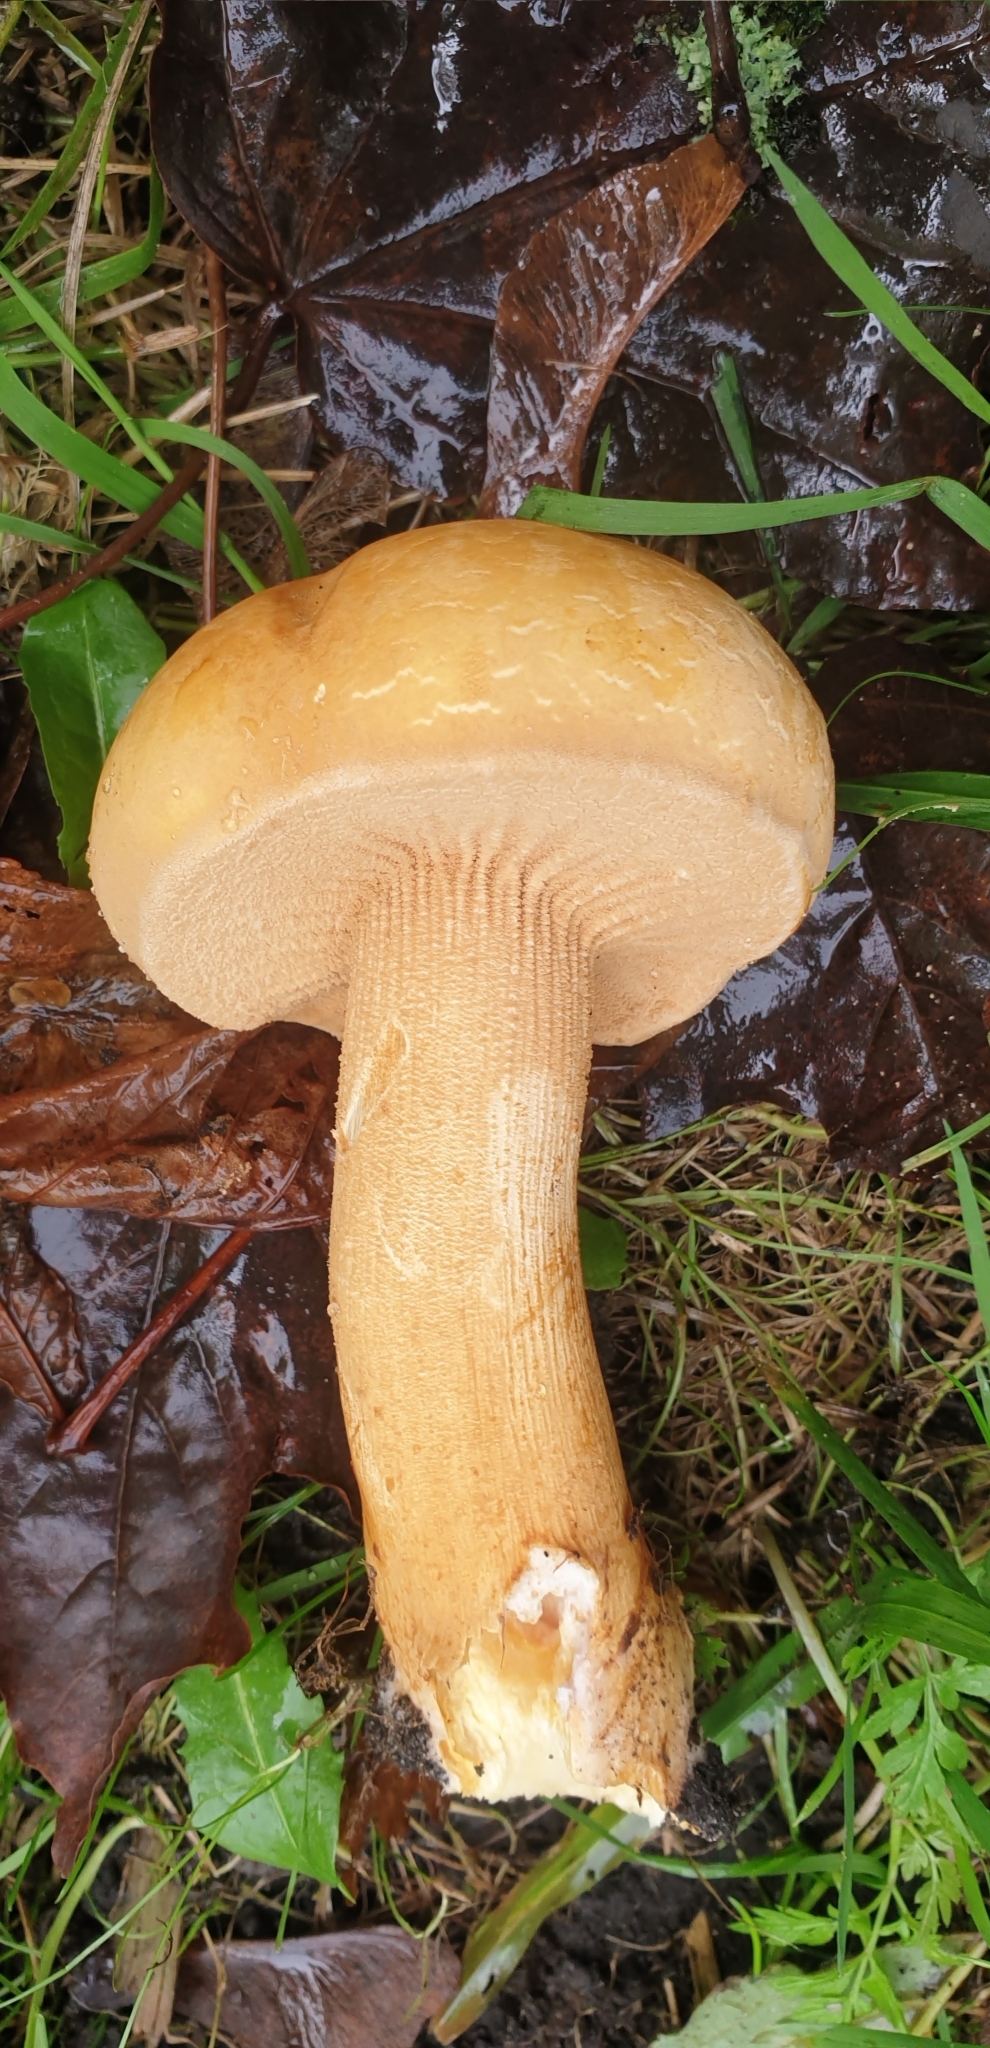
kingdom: Fungi
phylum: Basidiomycota
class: Agaricomycetes
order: Agaricales
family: Tricholomataceae
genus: Phaeolepiota
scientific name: Phaeolepiota aurea
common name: Golden bootleg
